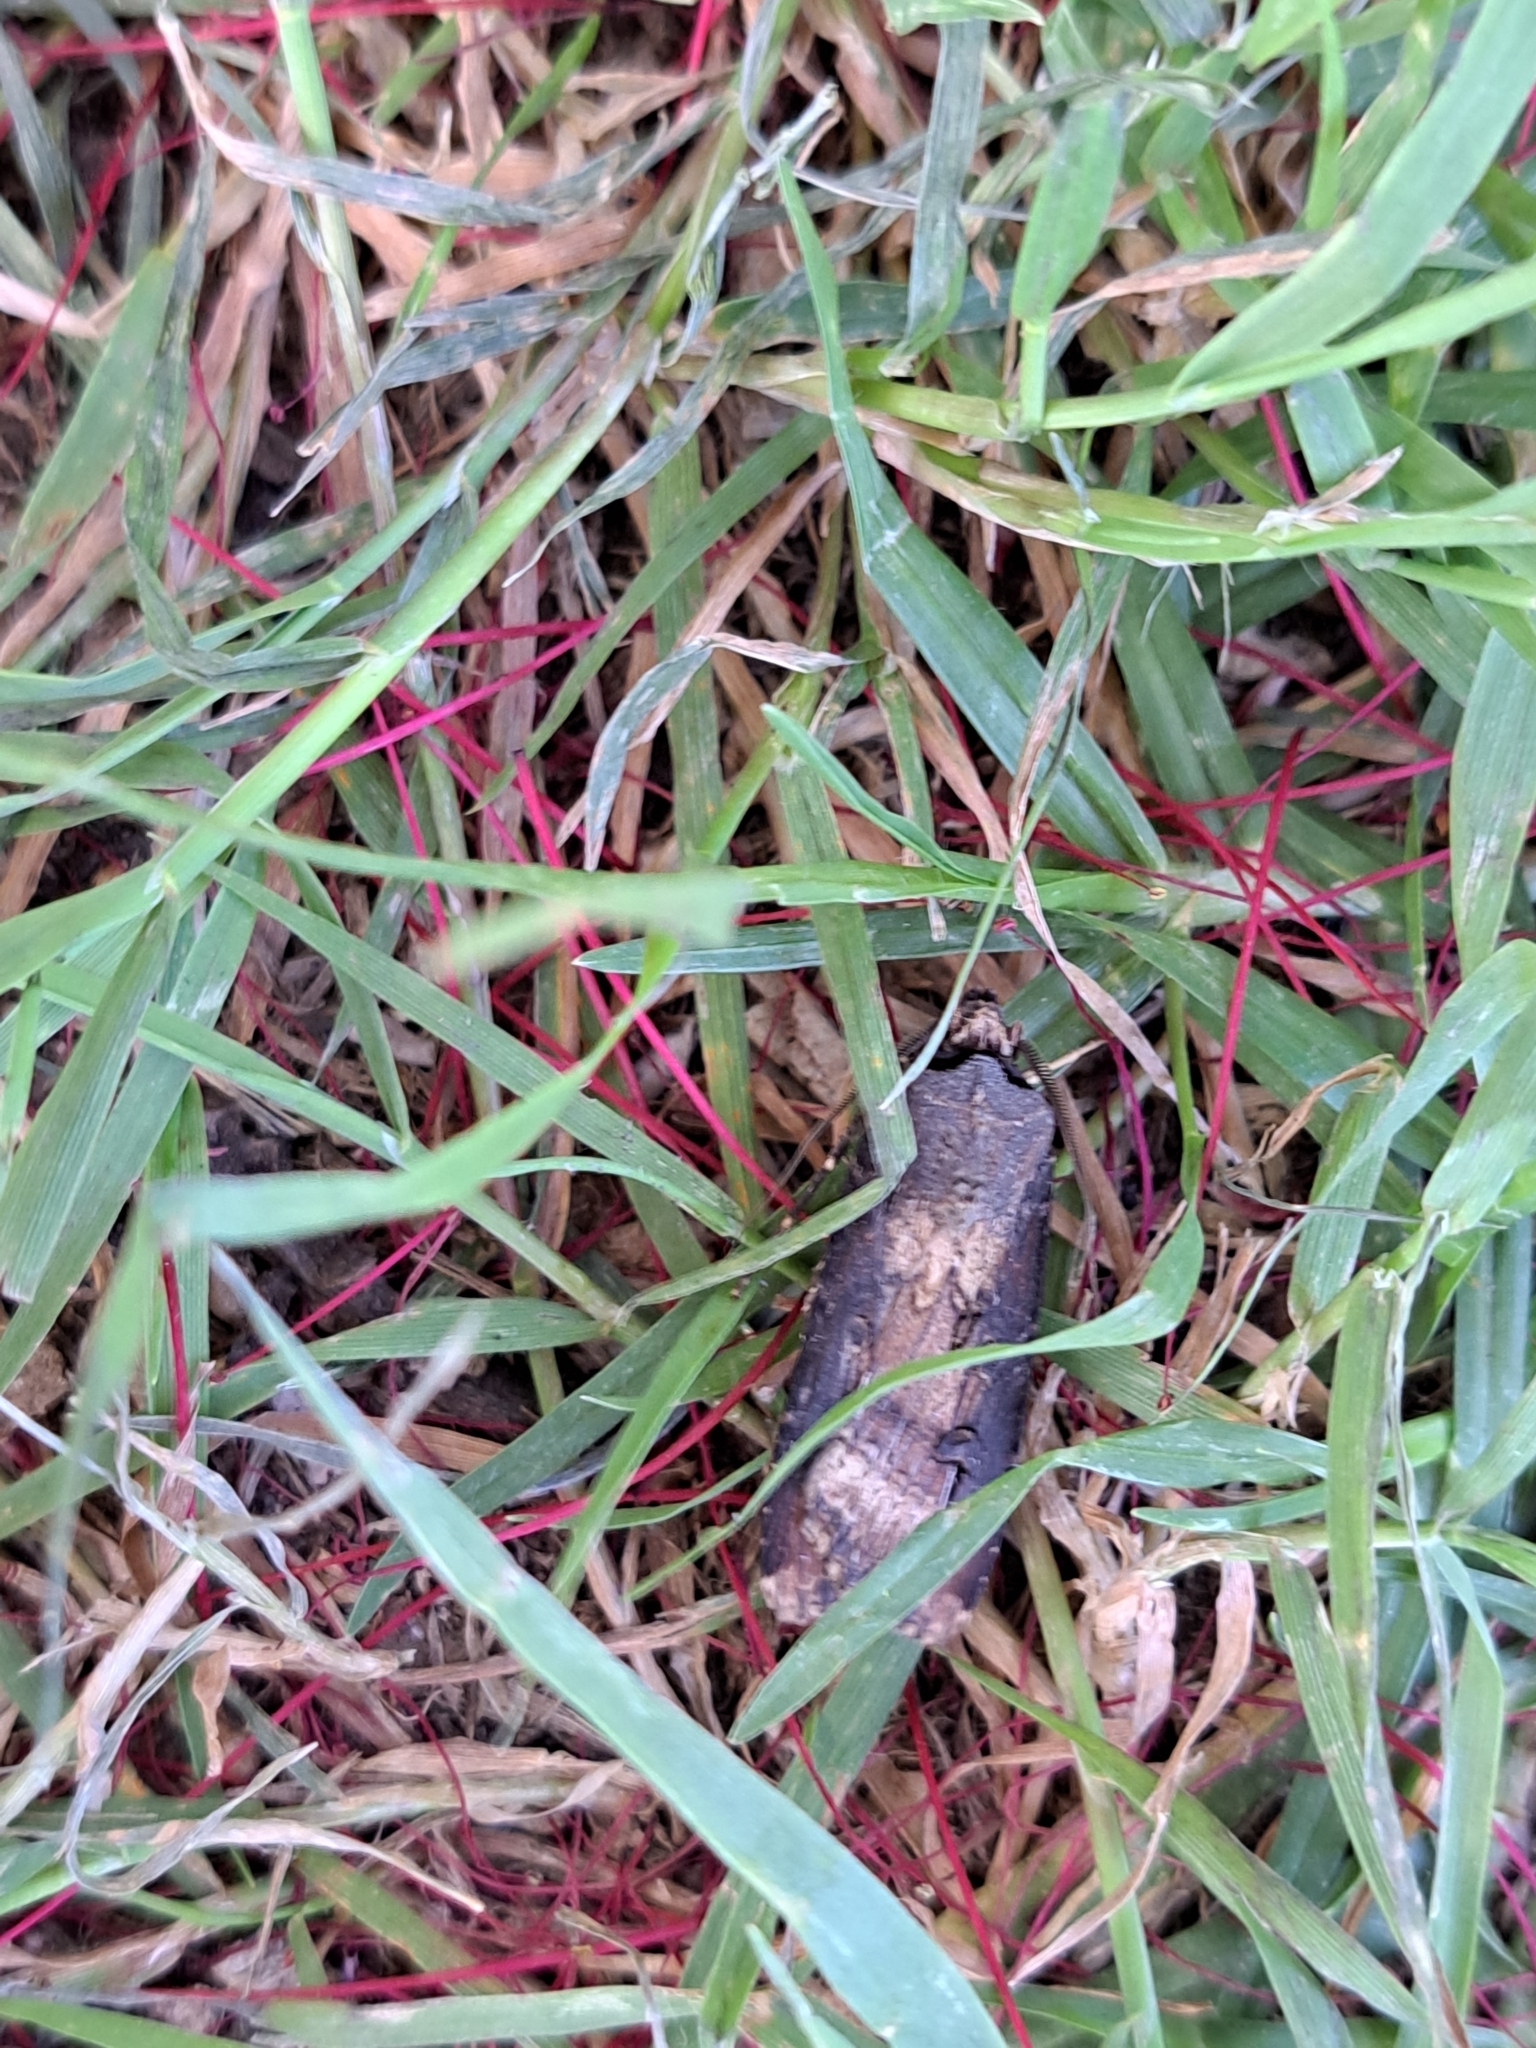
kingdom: Animalia
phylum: Arthropoda
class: Insecta
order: Lepidoptera
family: Noctuidae
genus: Agrotis
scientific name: Agrotis ipsilon
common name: Dark sword-grass
